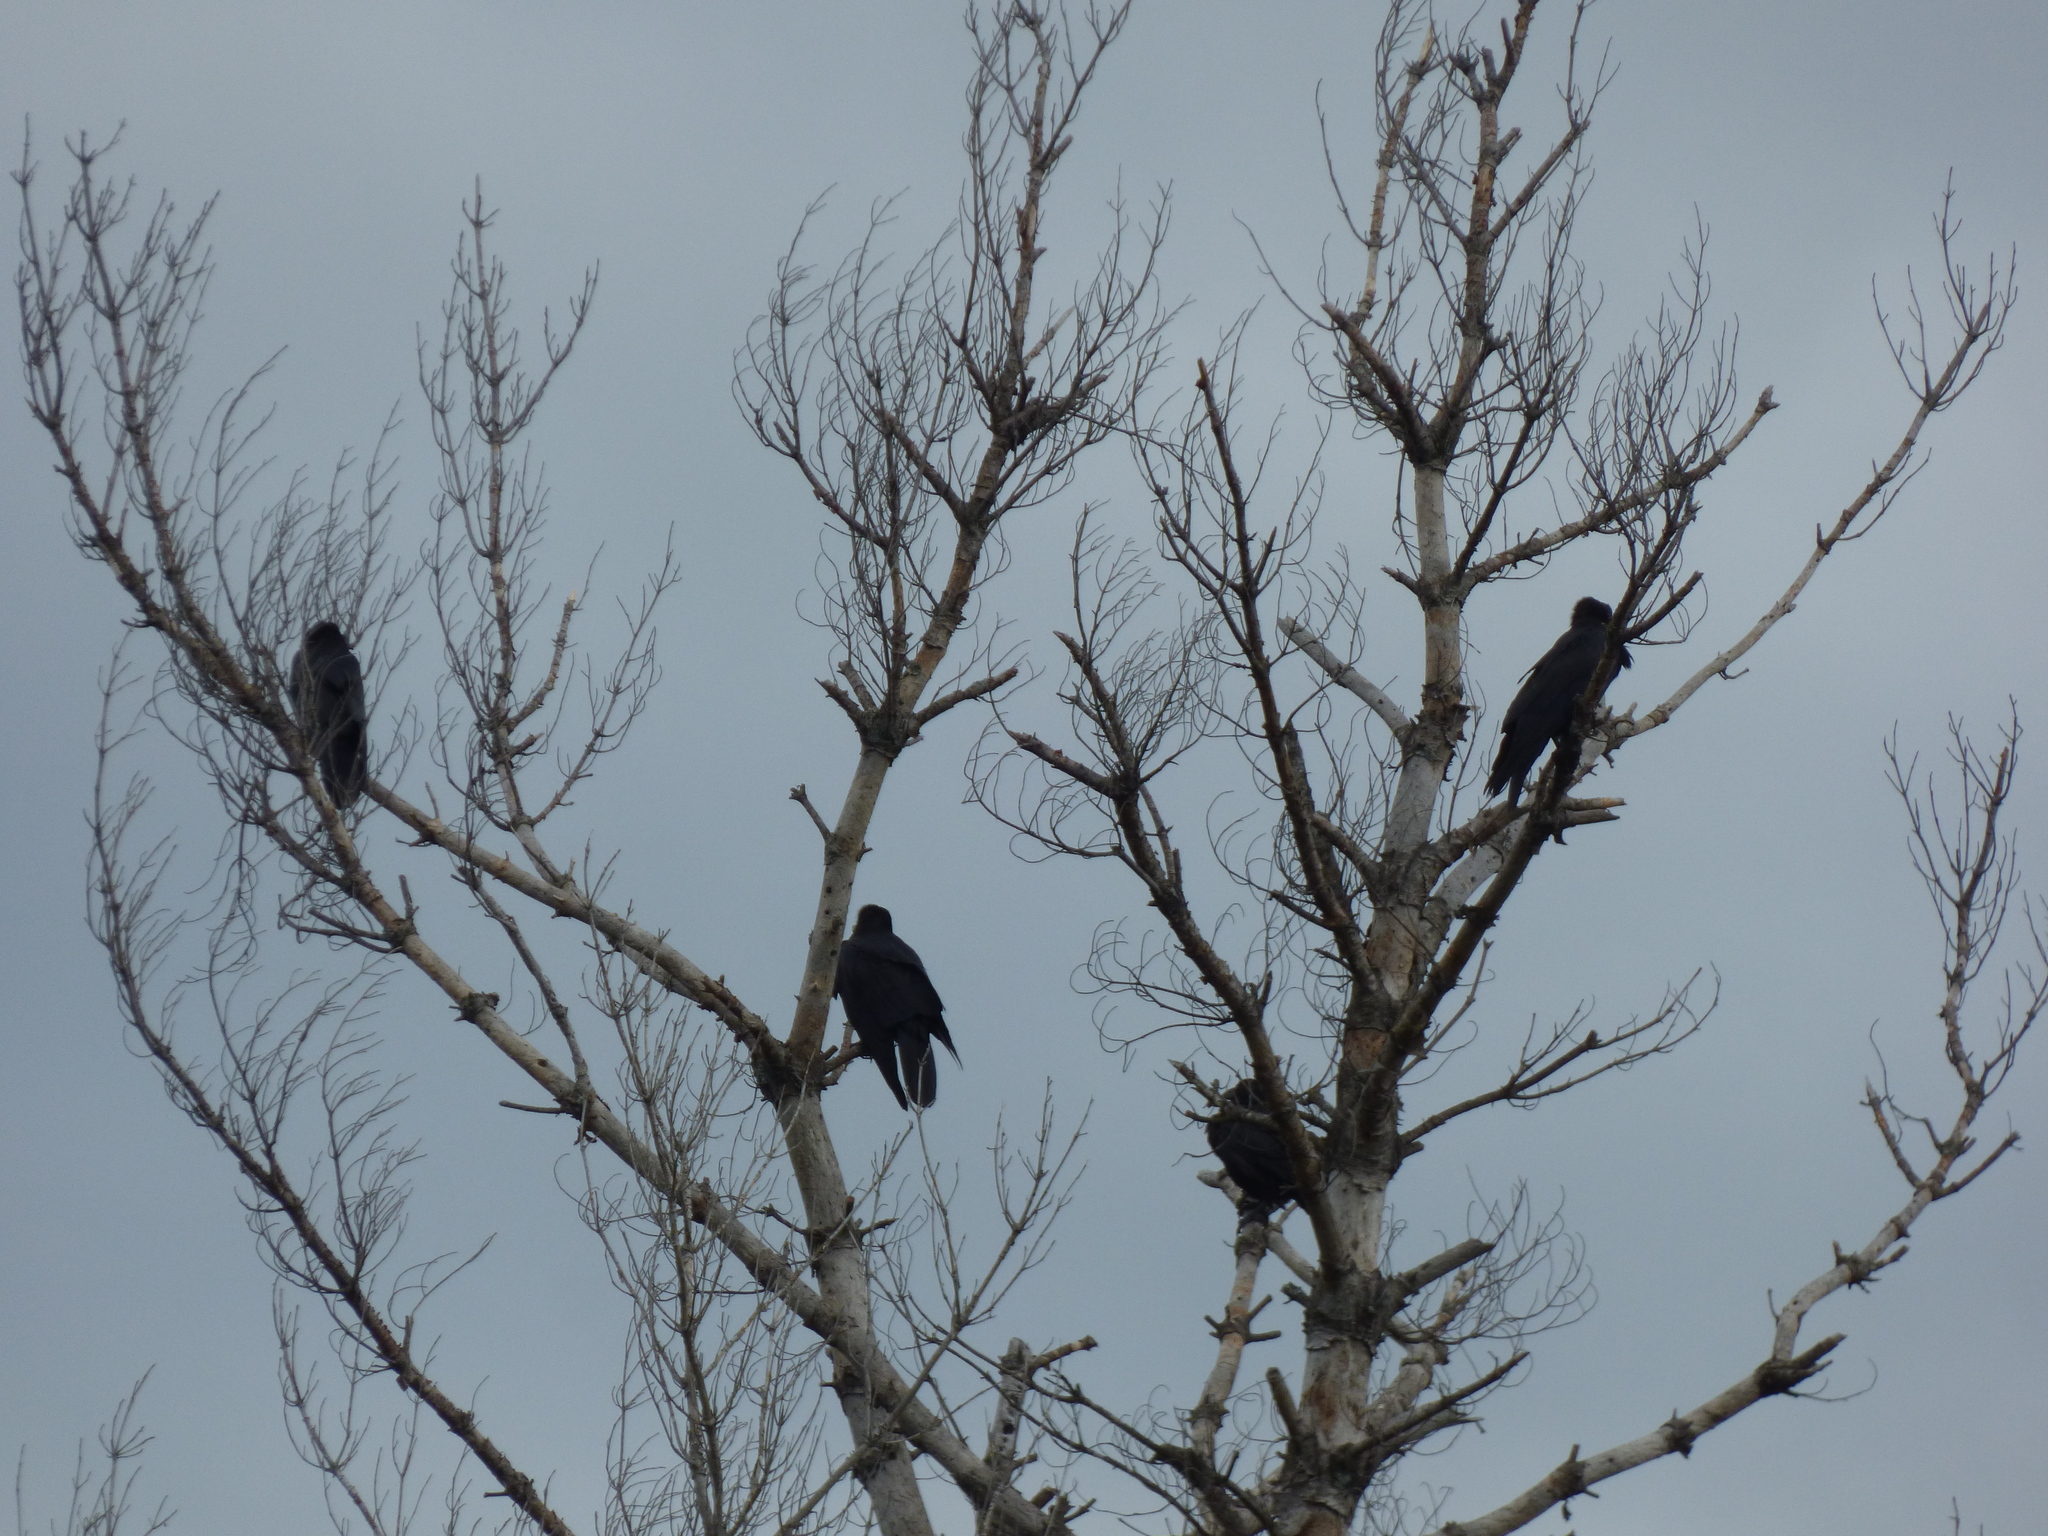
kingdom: Animalia
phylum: Chordata
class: Aves
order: Passeriformes
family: Corvidae
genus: Corvus
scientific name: Corvus brachyrhynchos
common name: American crow
